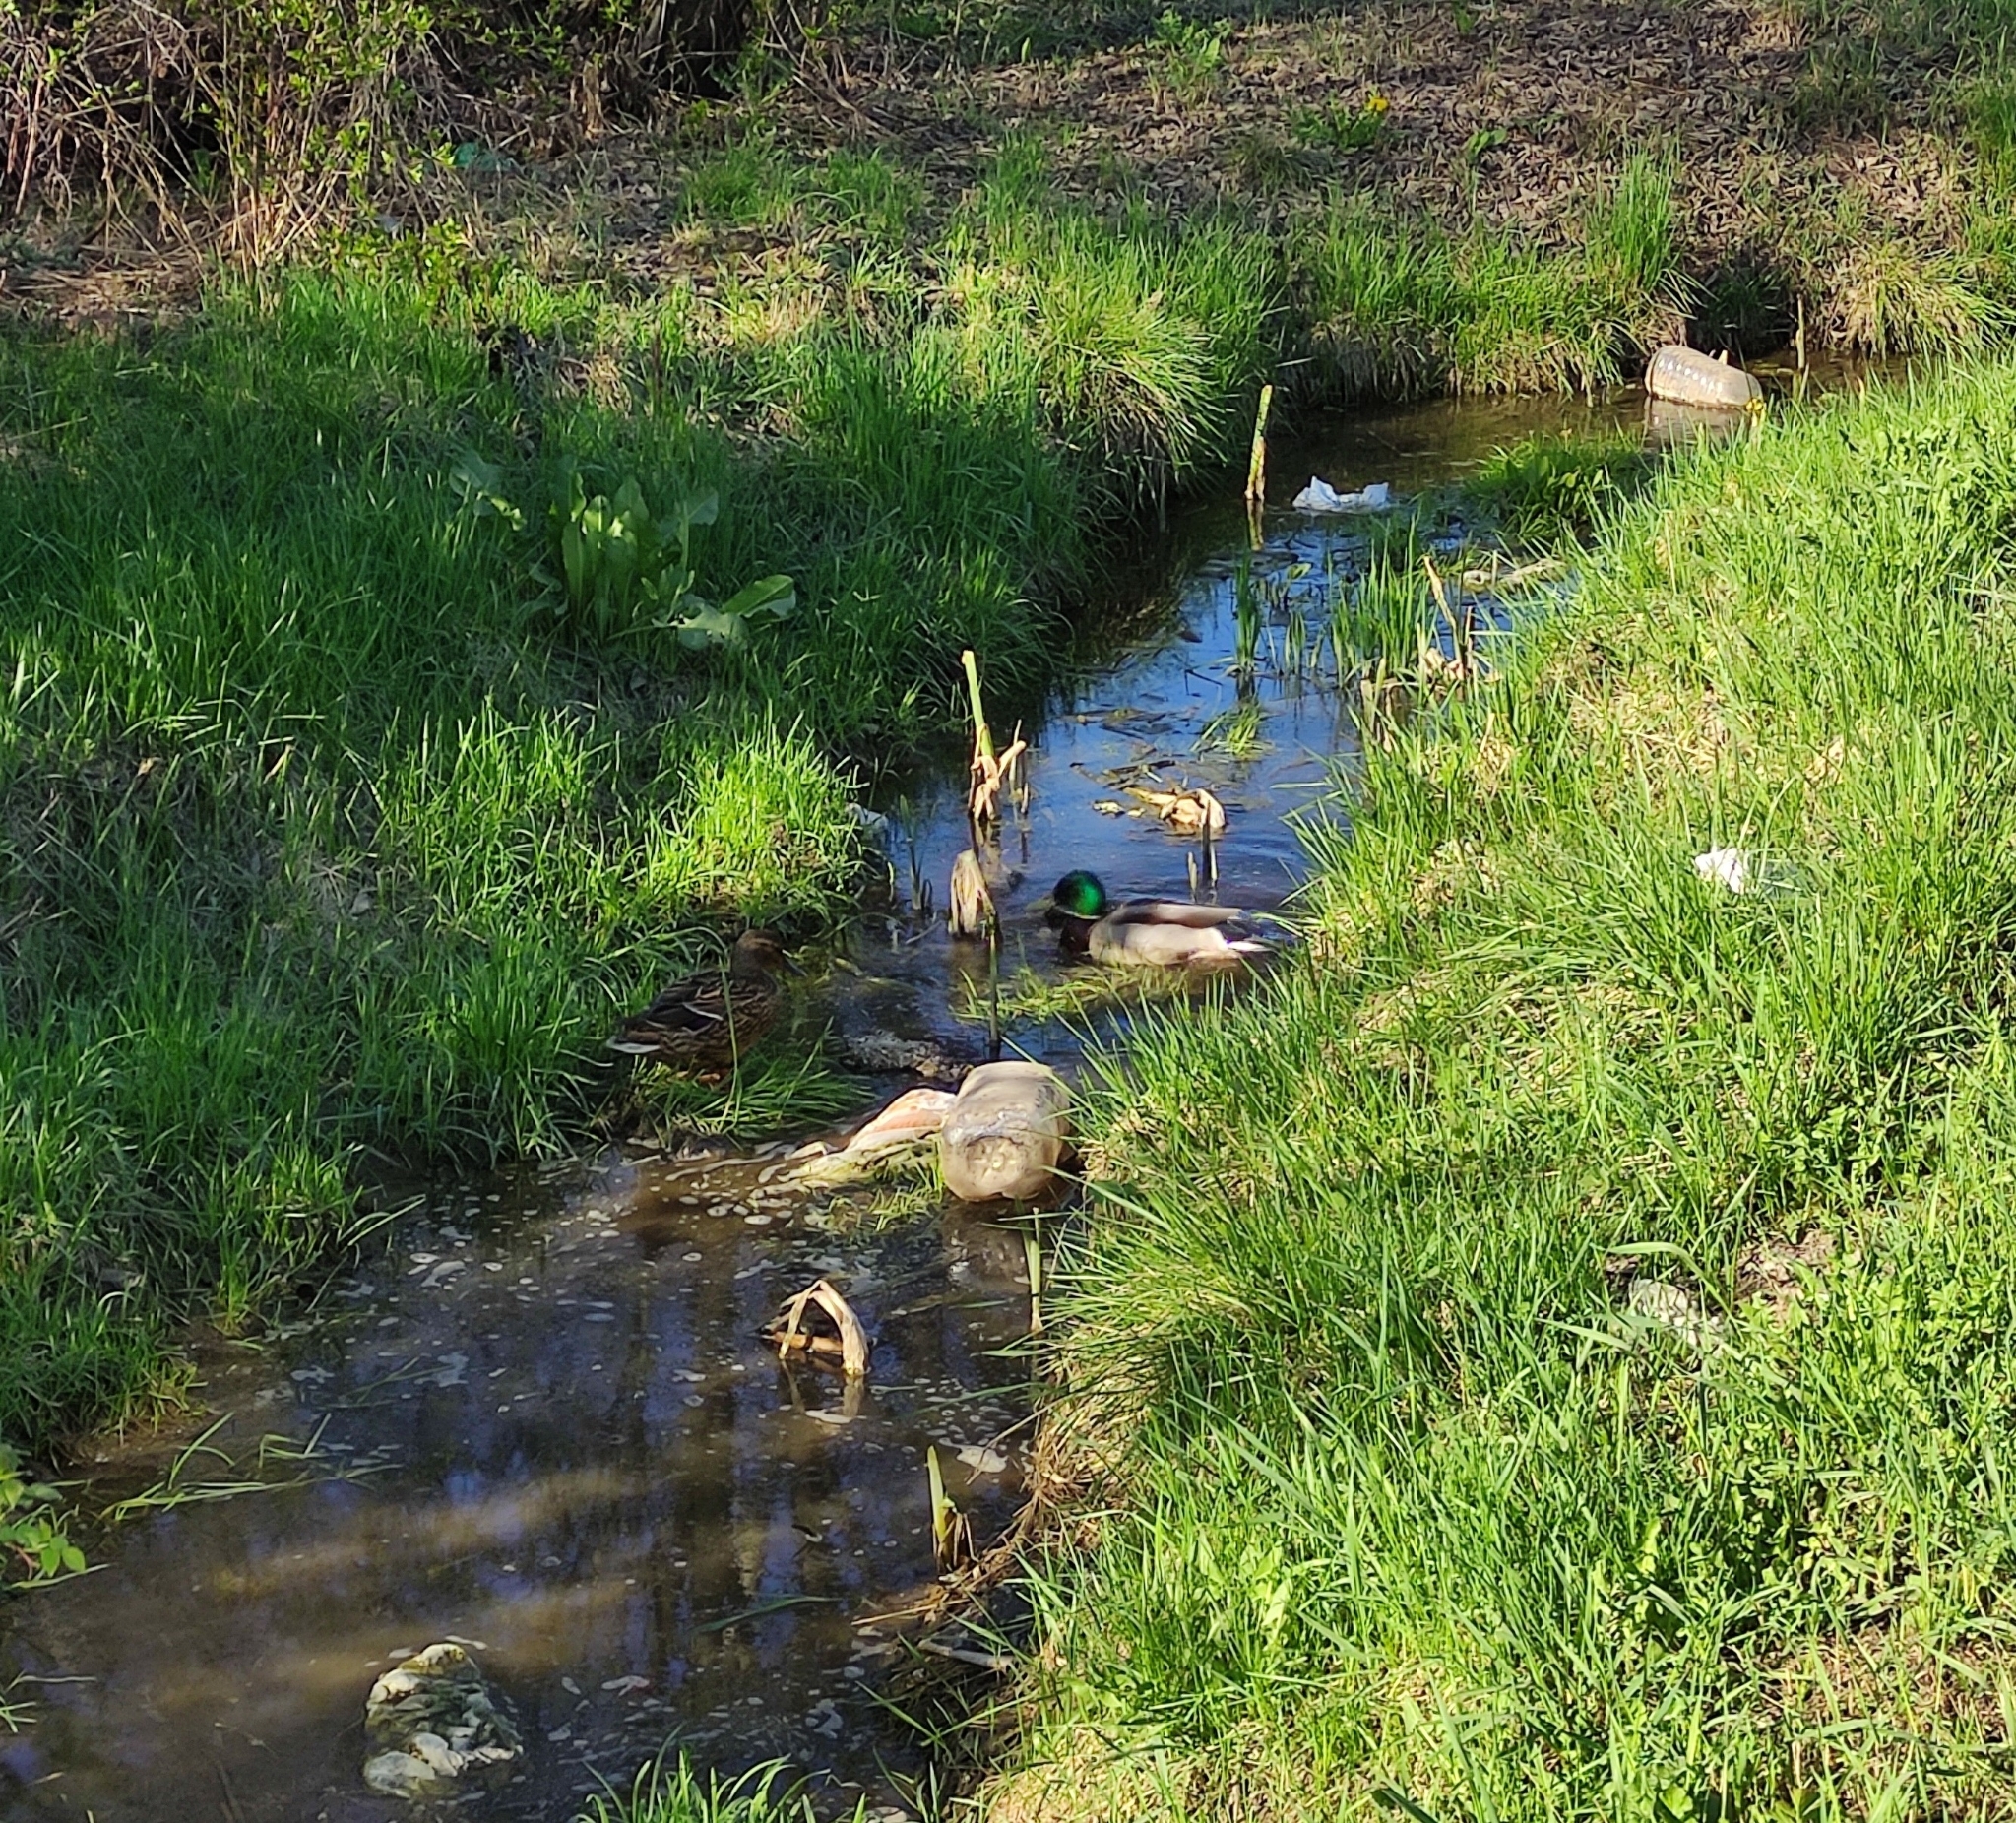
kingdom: Animalia
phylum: Chordata
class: Aves
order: Anseriformes
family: Anatidae
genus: Anas
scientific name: Anas platyrhynchos
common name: Mallard
